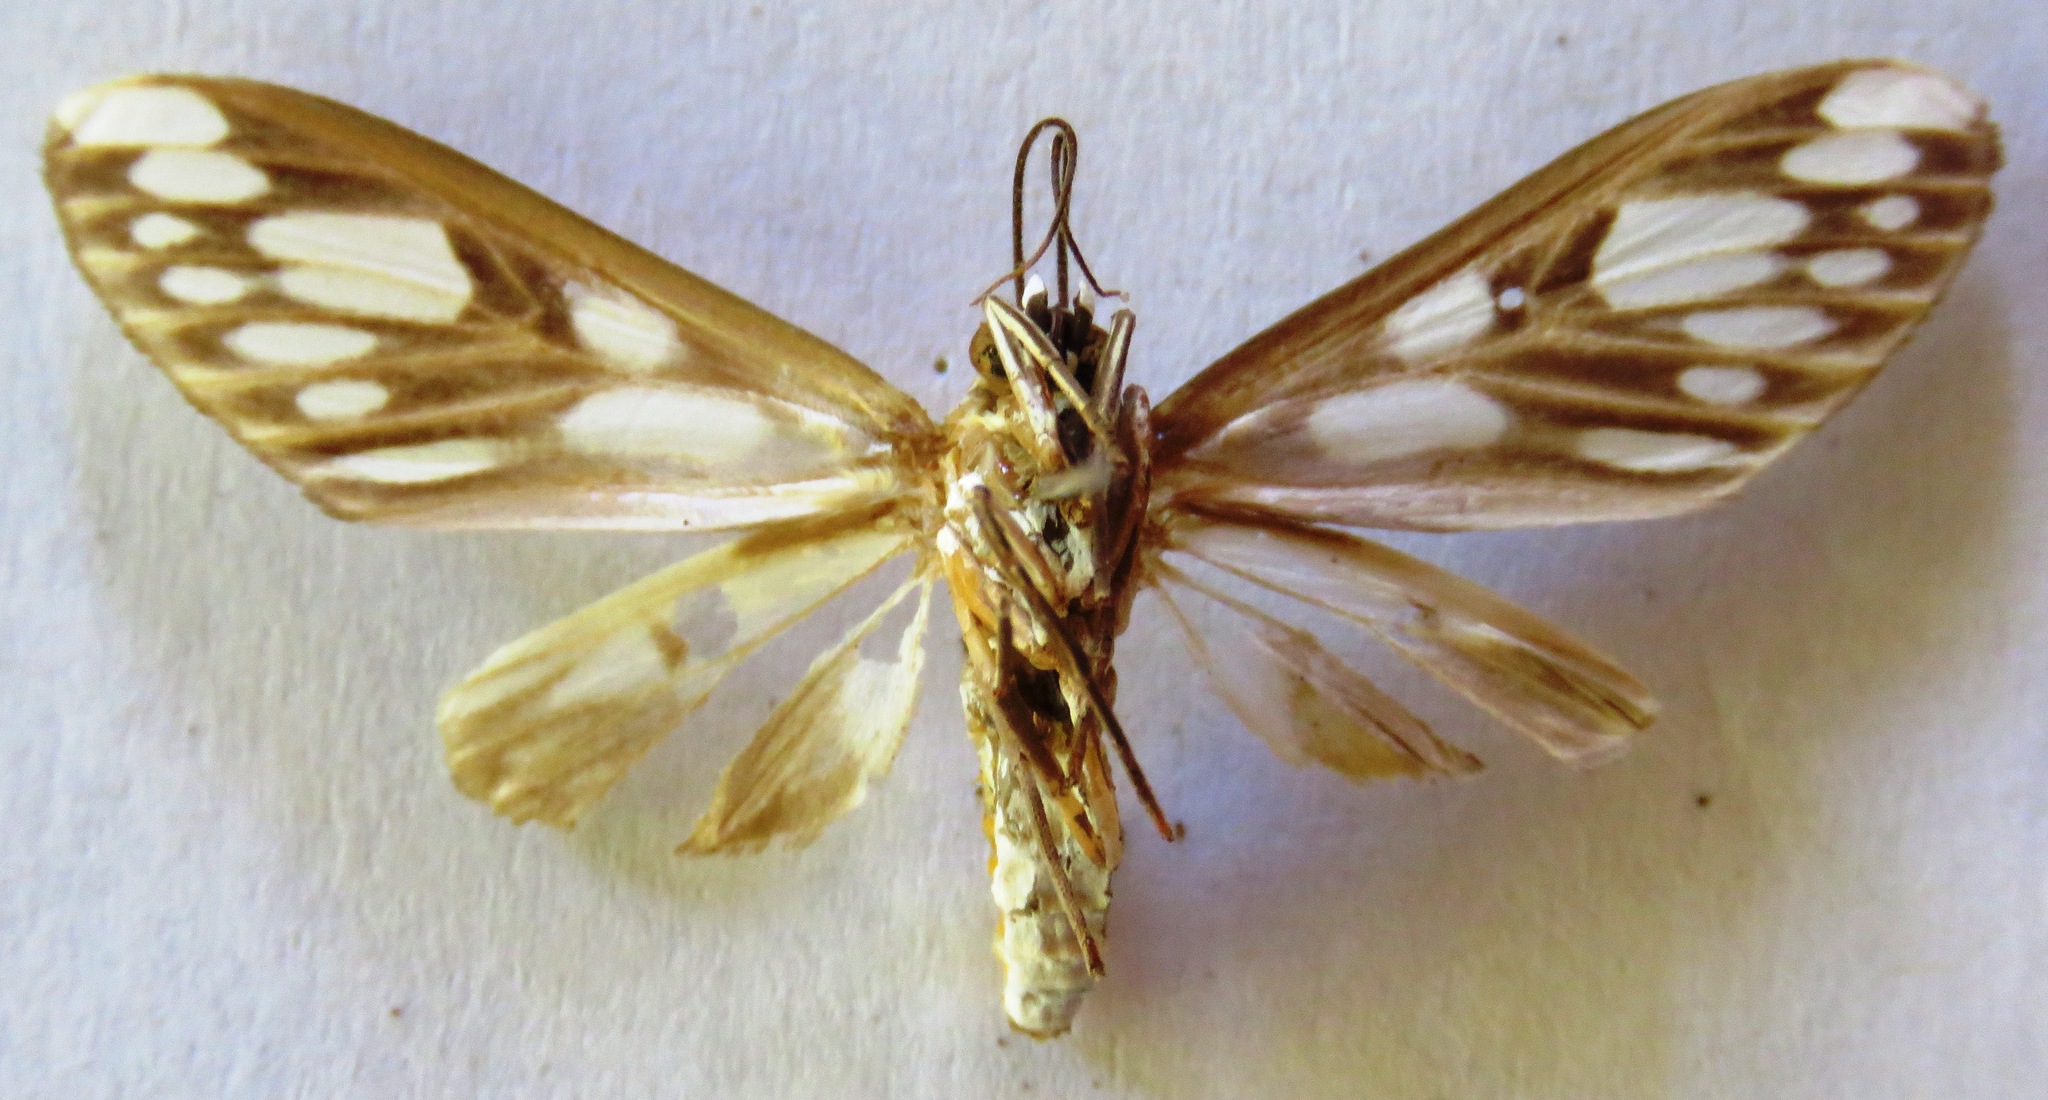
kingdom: Animalia
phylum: Arthropoda
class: Insecta
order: Lepidoptera
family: Erebidae
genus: Robinsonia
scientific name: Robinsonia bartolana
